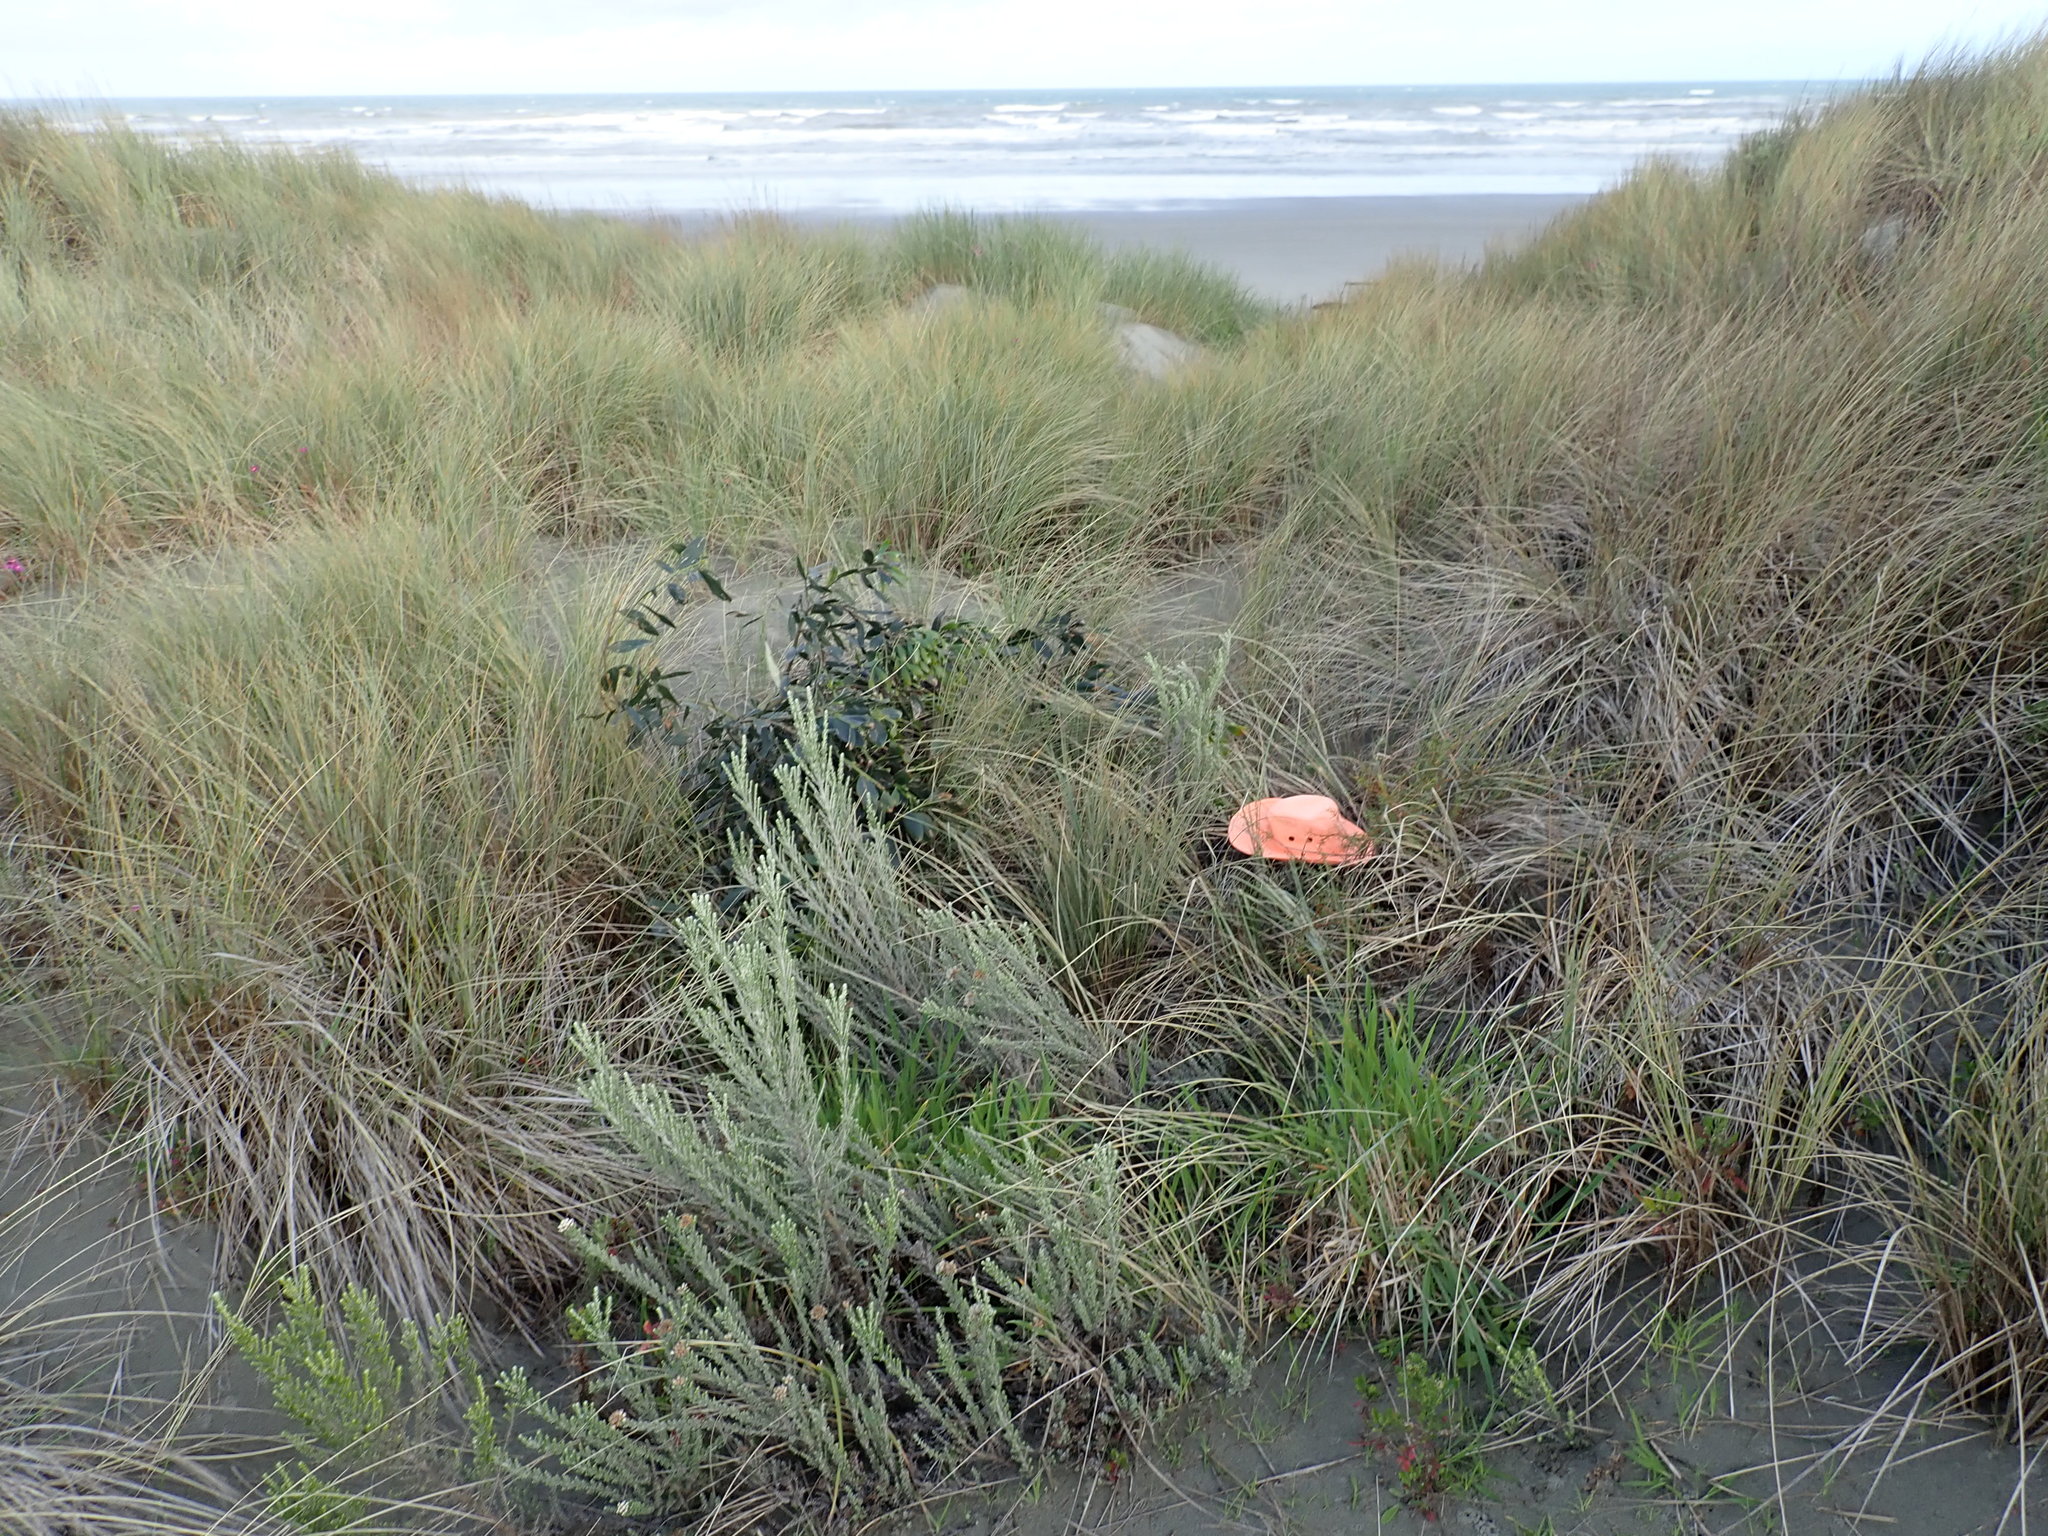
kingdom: Plantae
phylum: Tracheophyta
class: Magnoliopsida
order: Gentianales
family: Rubiaceae
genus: Coprosma
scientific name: Coprosma acerosa
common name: Sand coprosma
